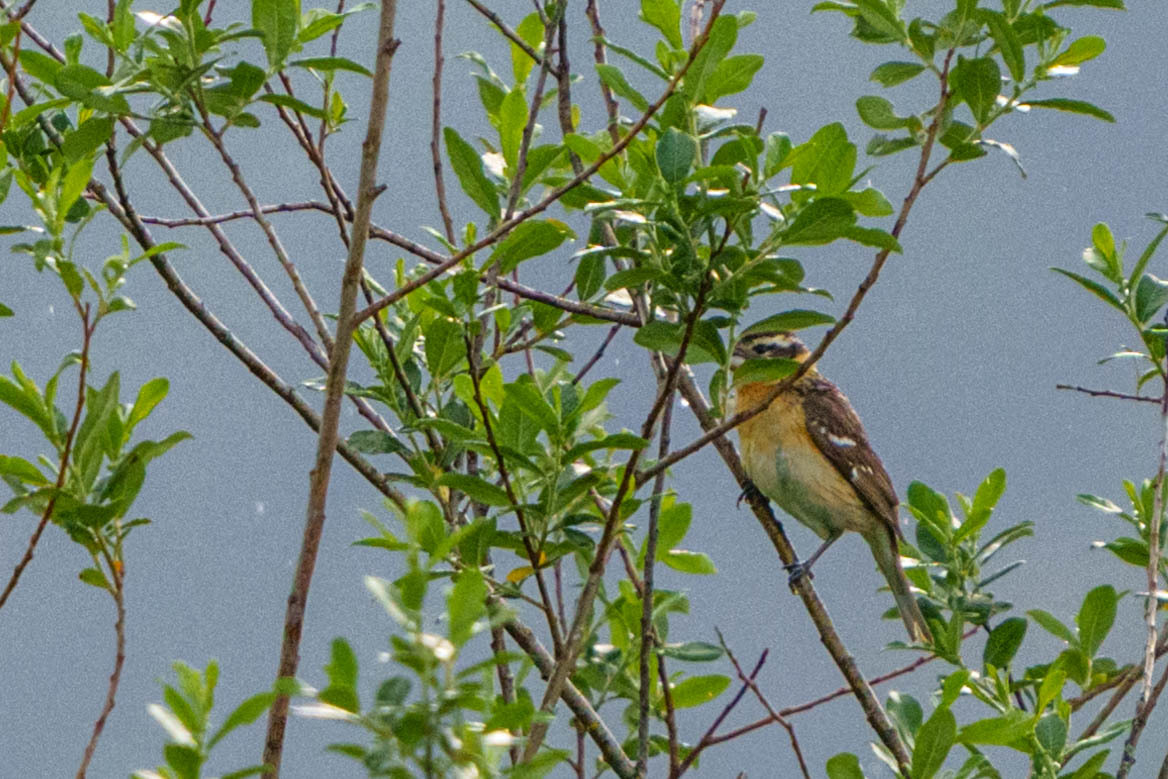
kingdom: Animalia
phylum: Chordata
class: Aves
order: Passeriformes
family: Cardinalidae
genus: Pheucticus
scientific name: Pheucticus melanocephalus
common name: Black-headed grosbeak
